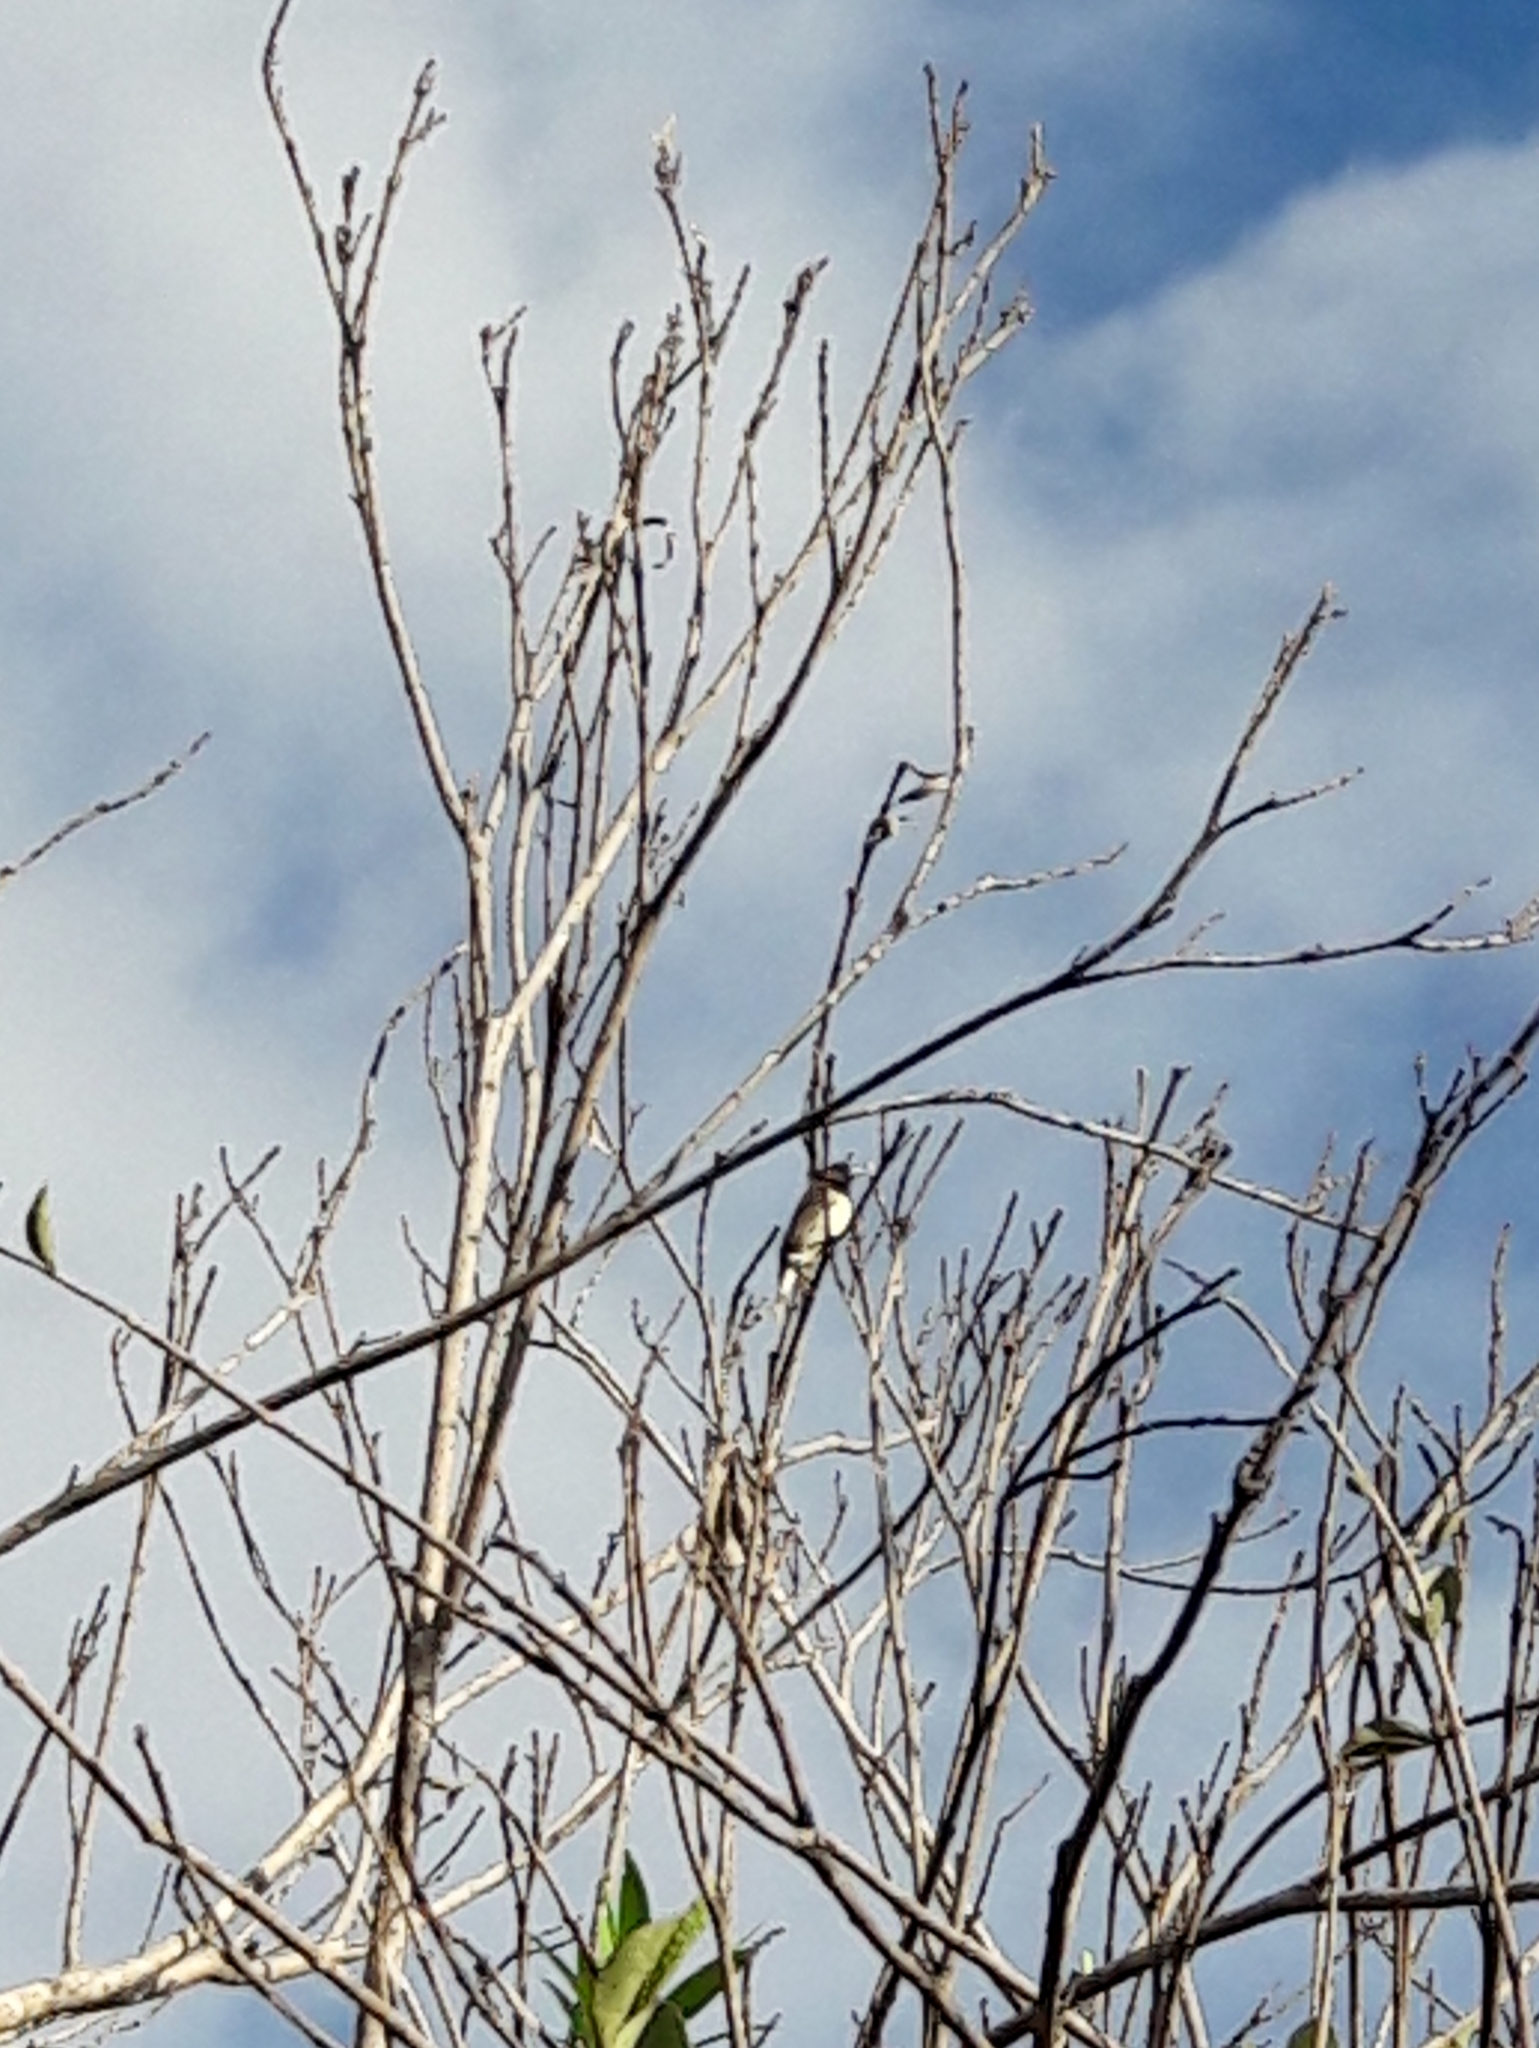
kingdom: Animalia
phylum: Chordata
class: Aves
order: Passeriformes
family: Thraupidae
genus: Sporophila
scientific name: Sporophila nigricollis
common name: Yellow-bellied seedeater
